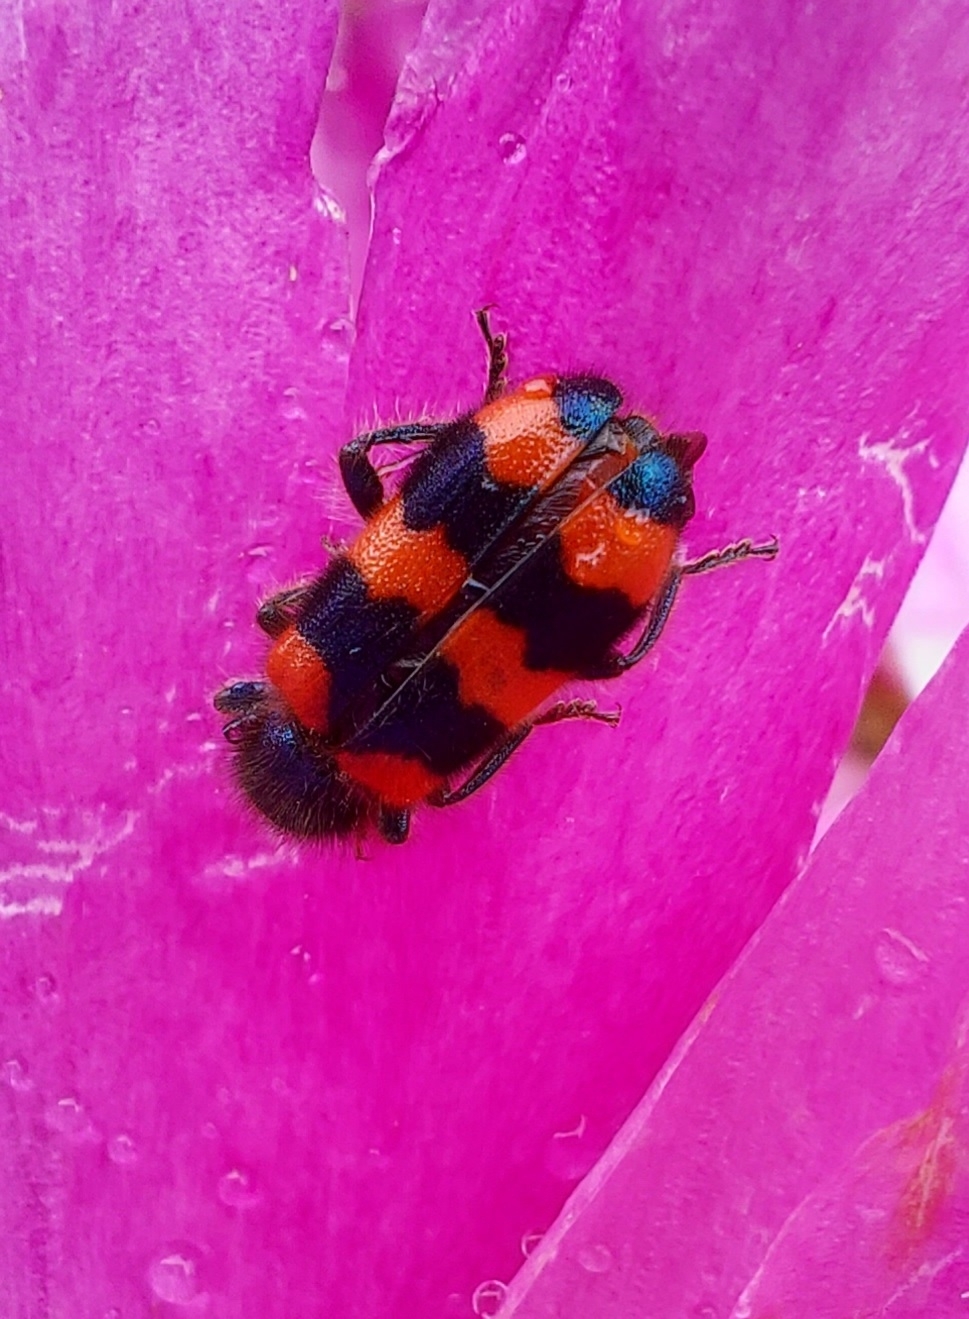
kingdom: Animalia
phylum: Arthropoda
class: Insecta
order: Coleoptera
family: Cleridae
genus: Trichodes
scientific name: Trichodes apiarius
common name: Bee-eating beetle
